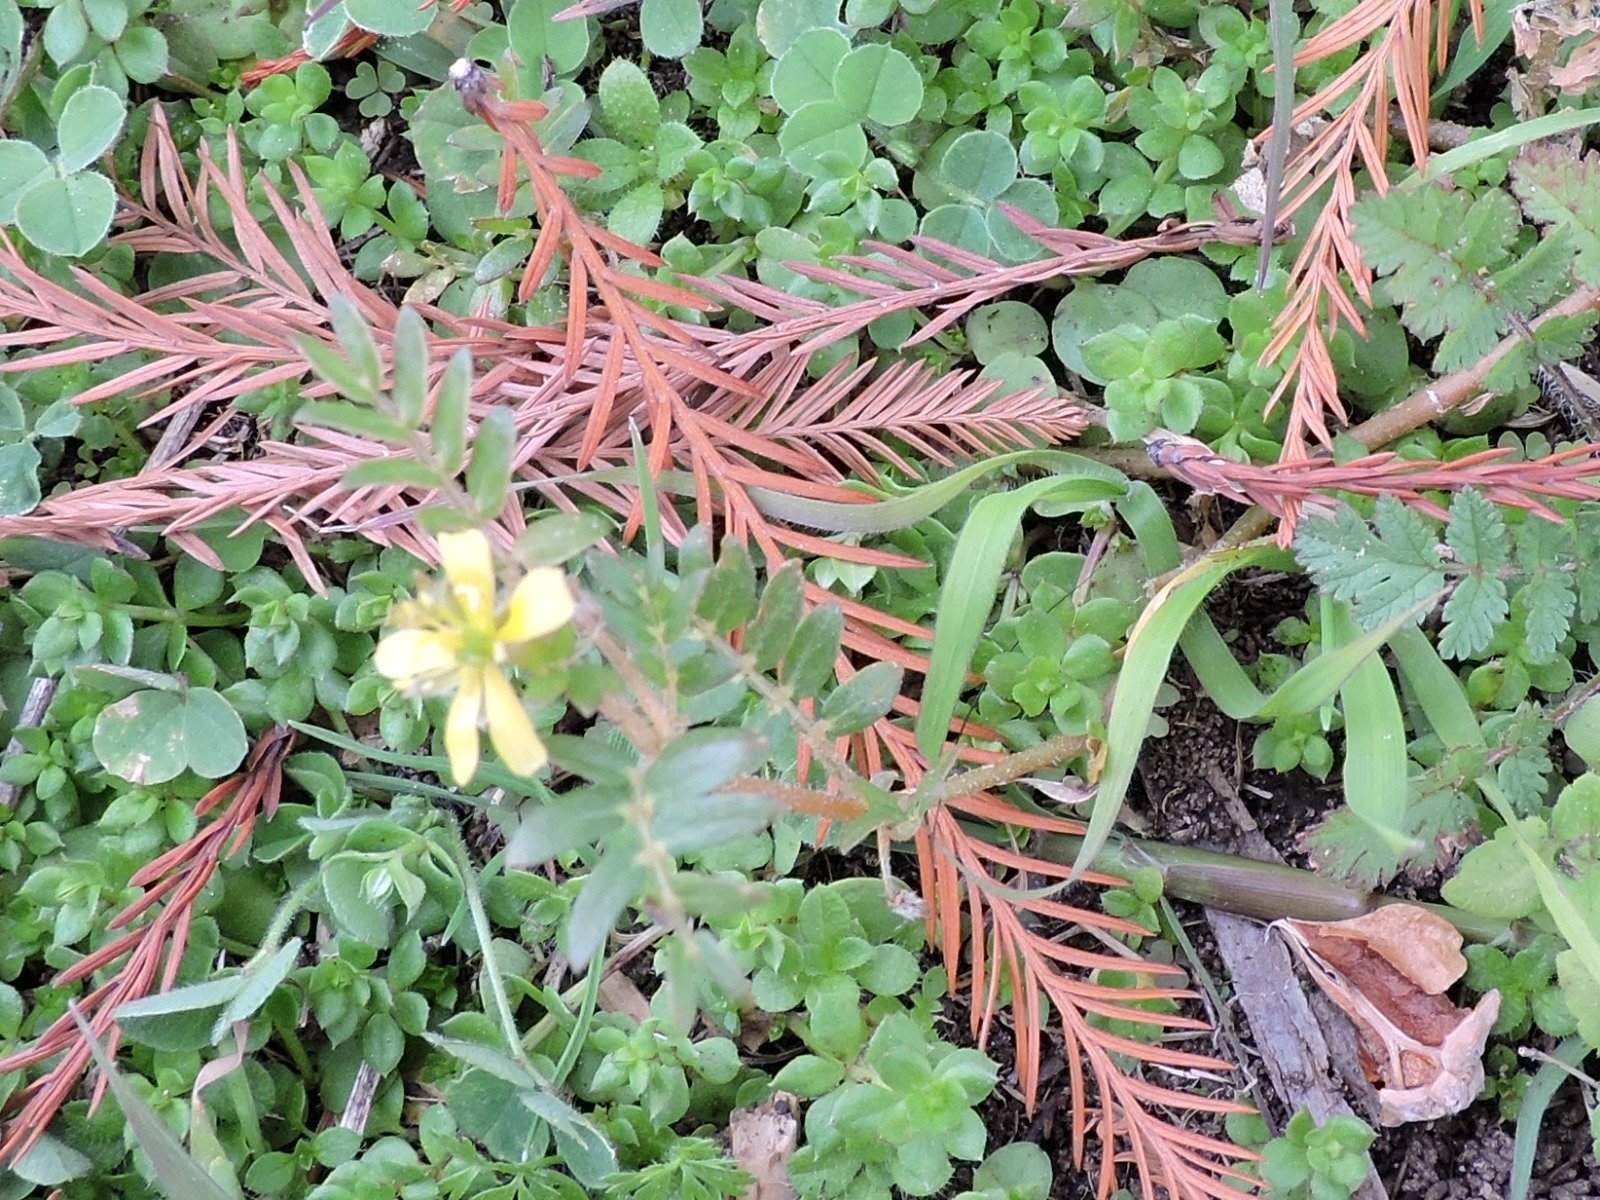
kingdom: Plantae
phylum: Tracheophyta
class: Magnoliopsida
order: Zygophyllales
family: Zygophyllaceae
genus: Tribulus
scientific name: Tribulus terrestris
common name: Puncturevine
